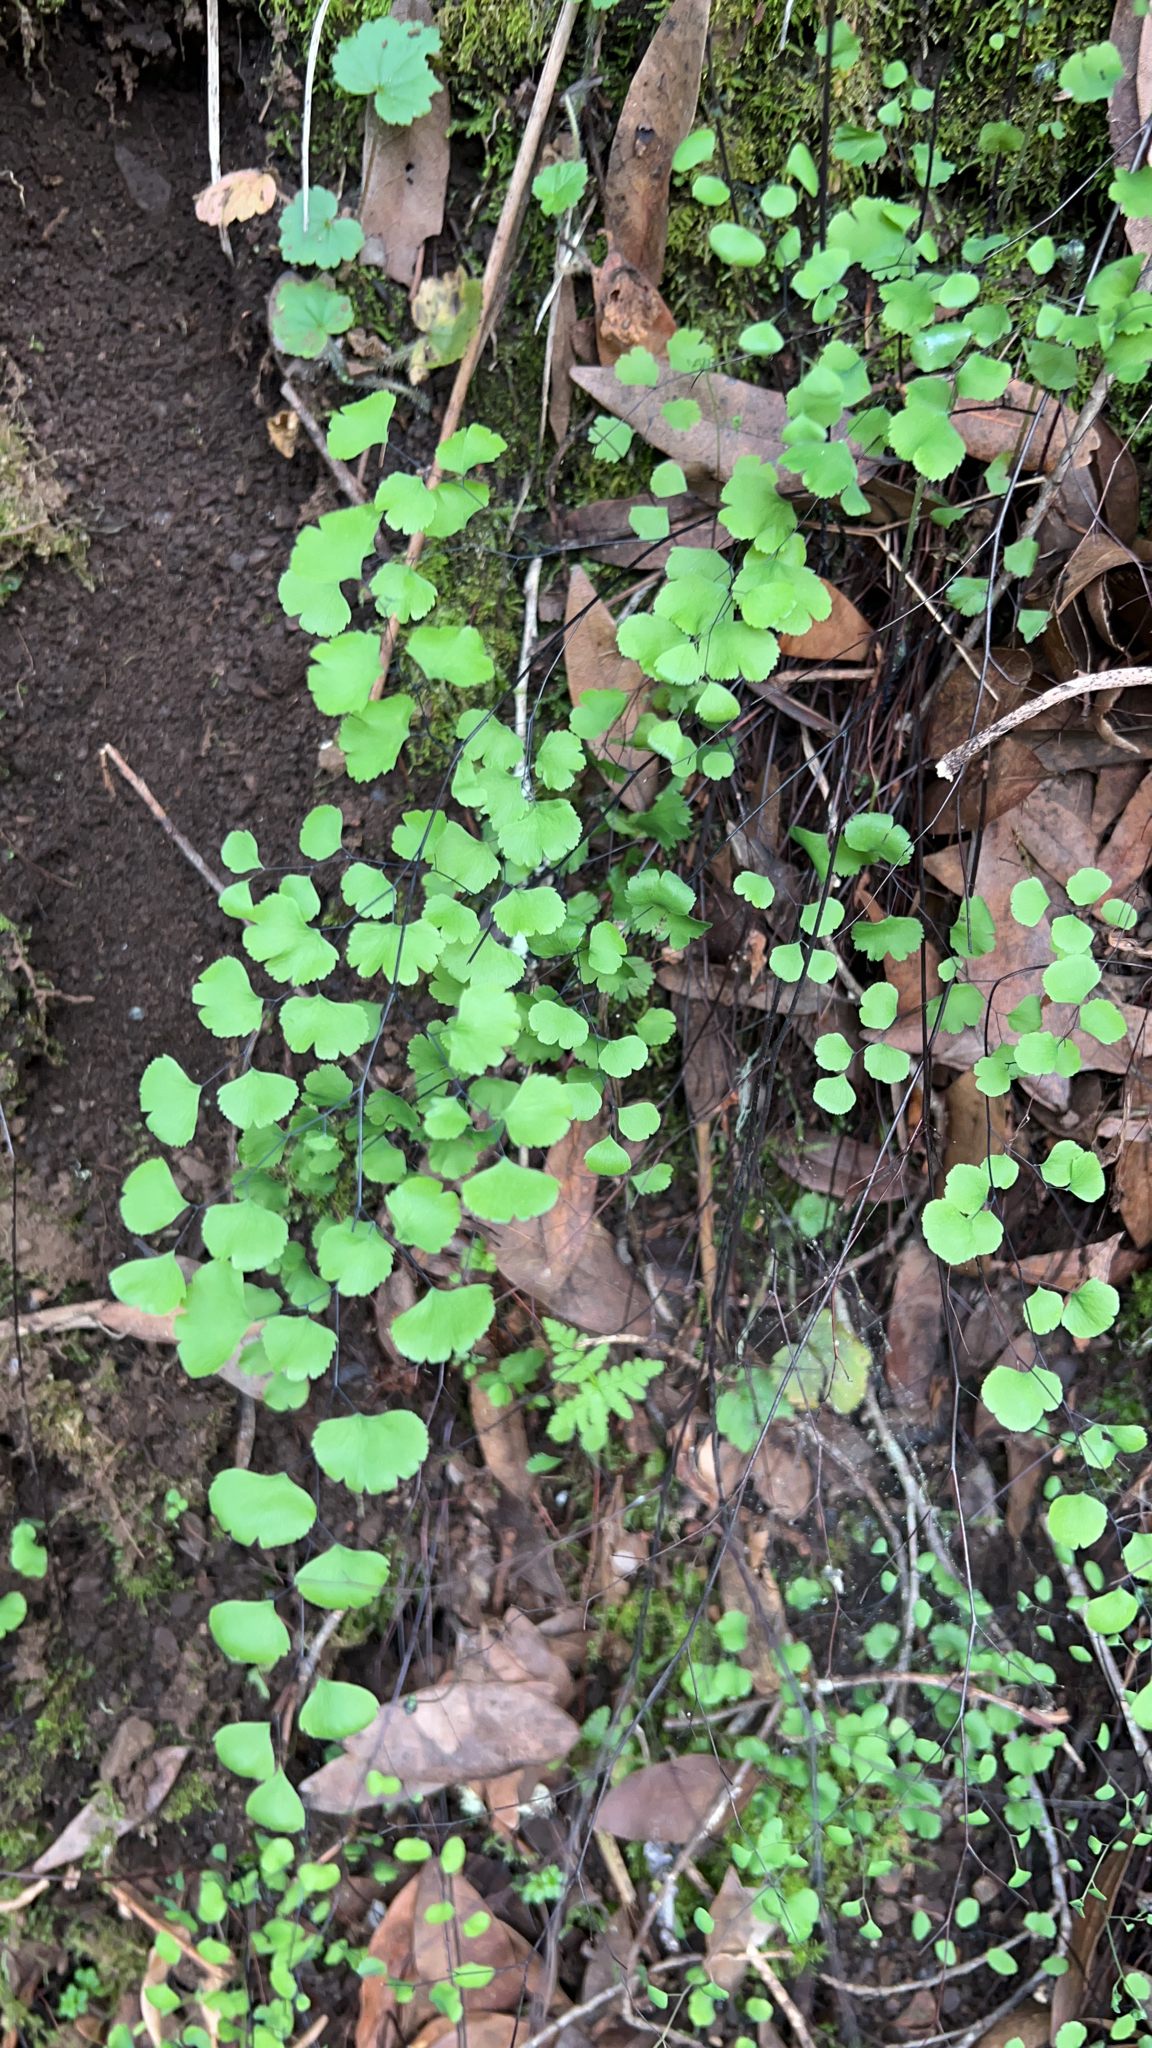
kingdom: Plantae
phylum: Tracheophyta
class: Polypodiopsida
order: Polypodiales
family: Pteridaceae
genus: Adiantum
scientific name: Adiantum jordanii
